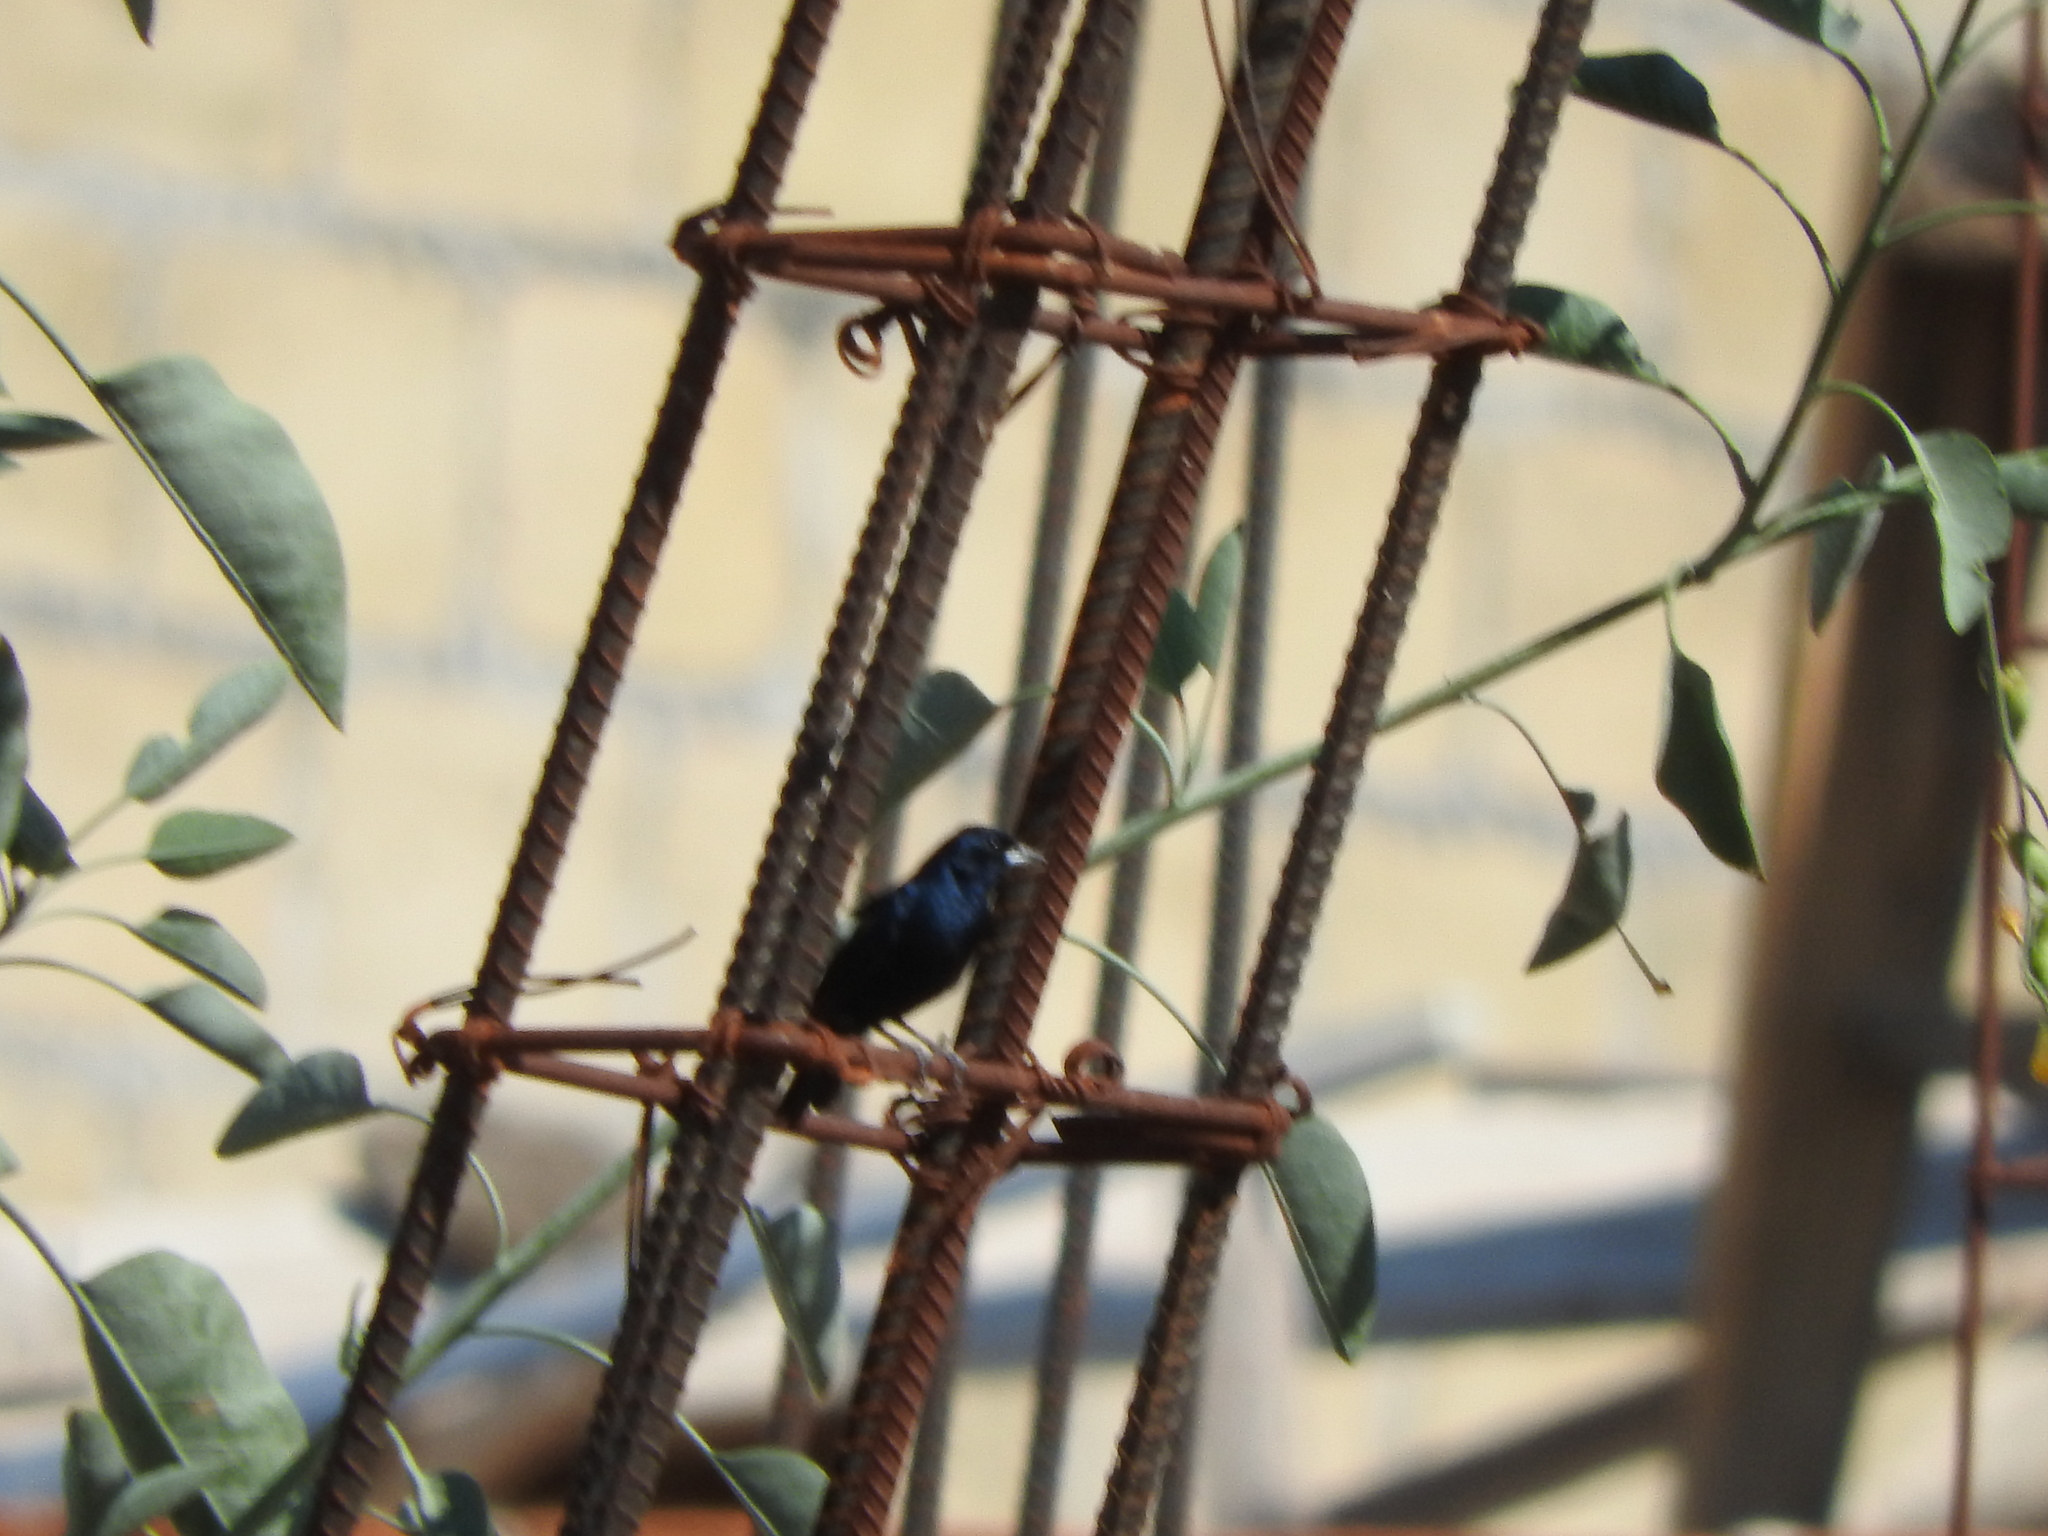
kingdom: Animalia
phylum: Chordata
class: Aves
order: Passeriformes
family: Thraupidae
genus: Volatinia
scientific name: Volatinia jacarina
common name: Blue-black grassquit
